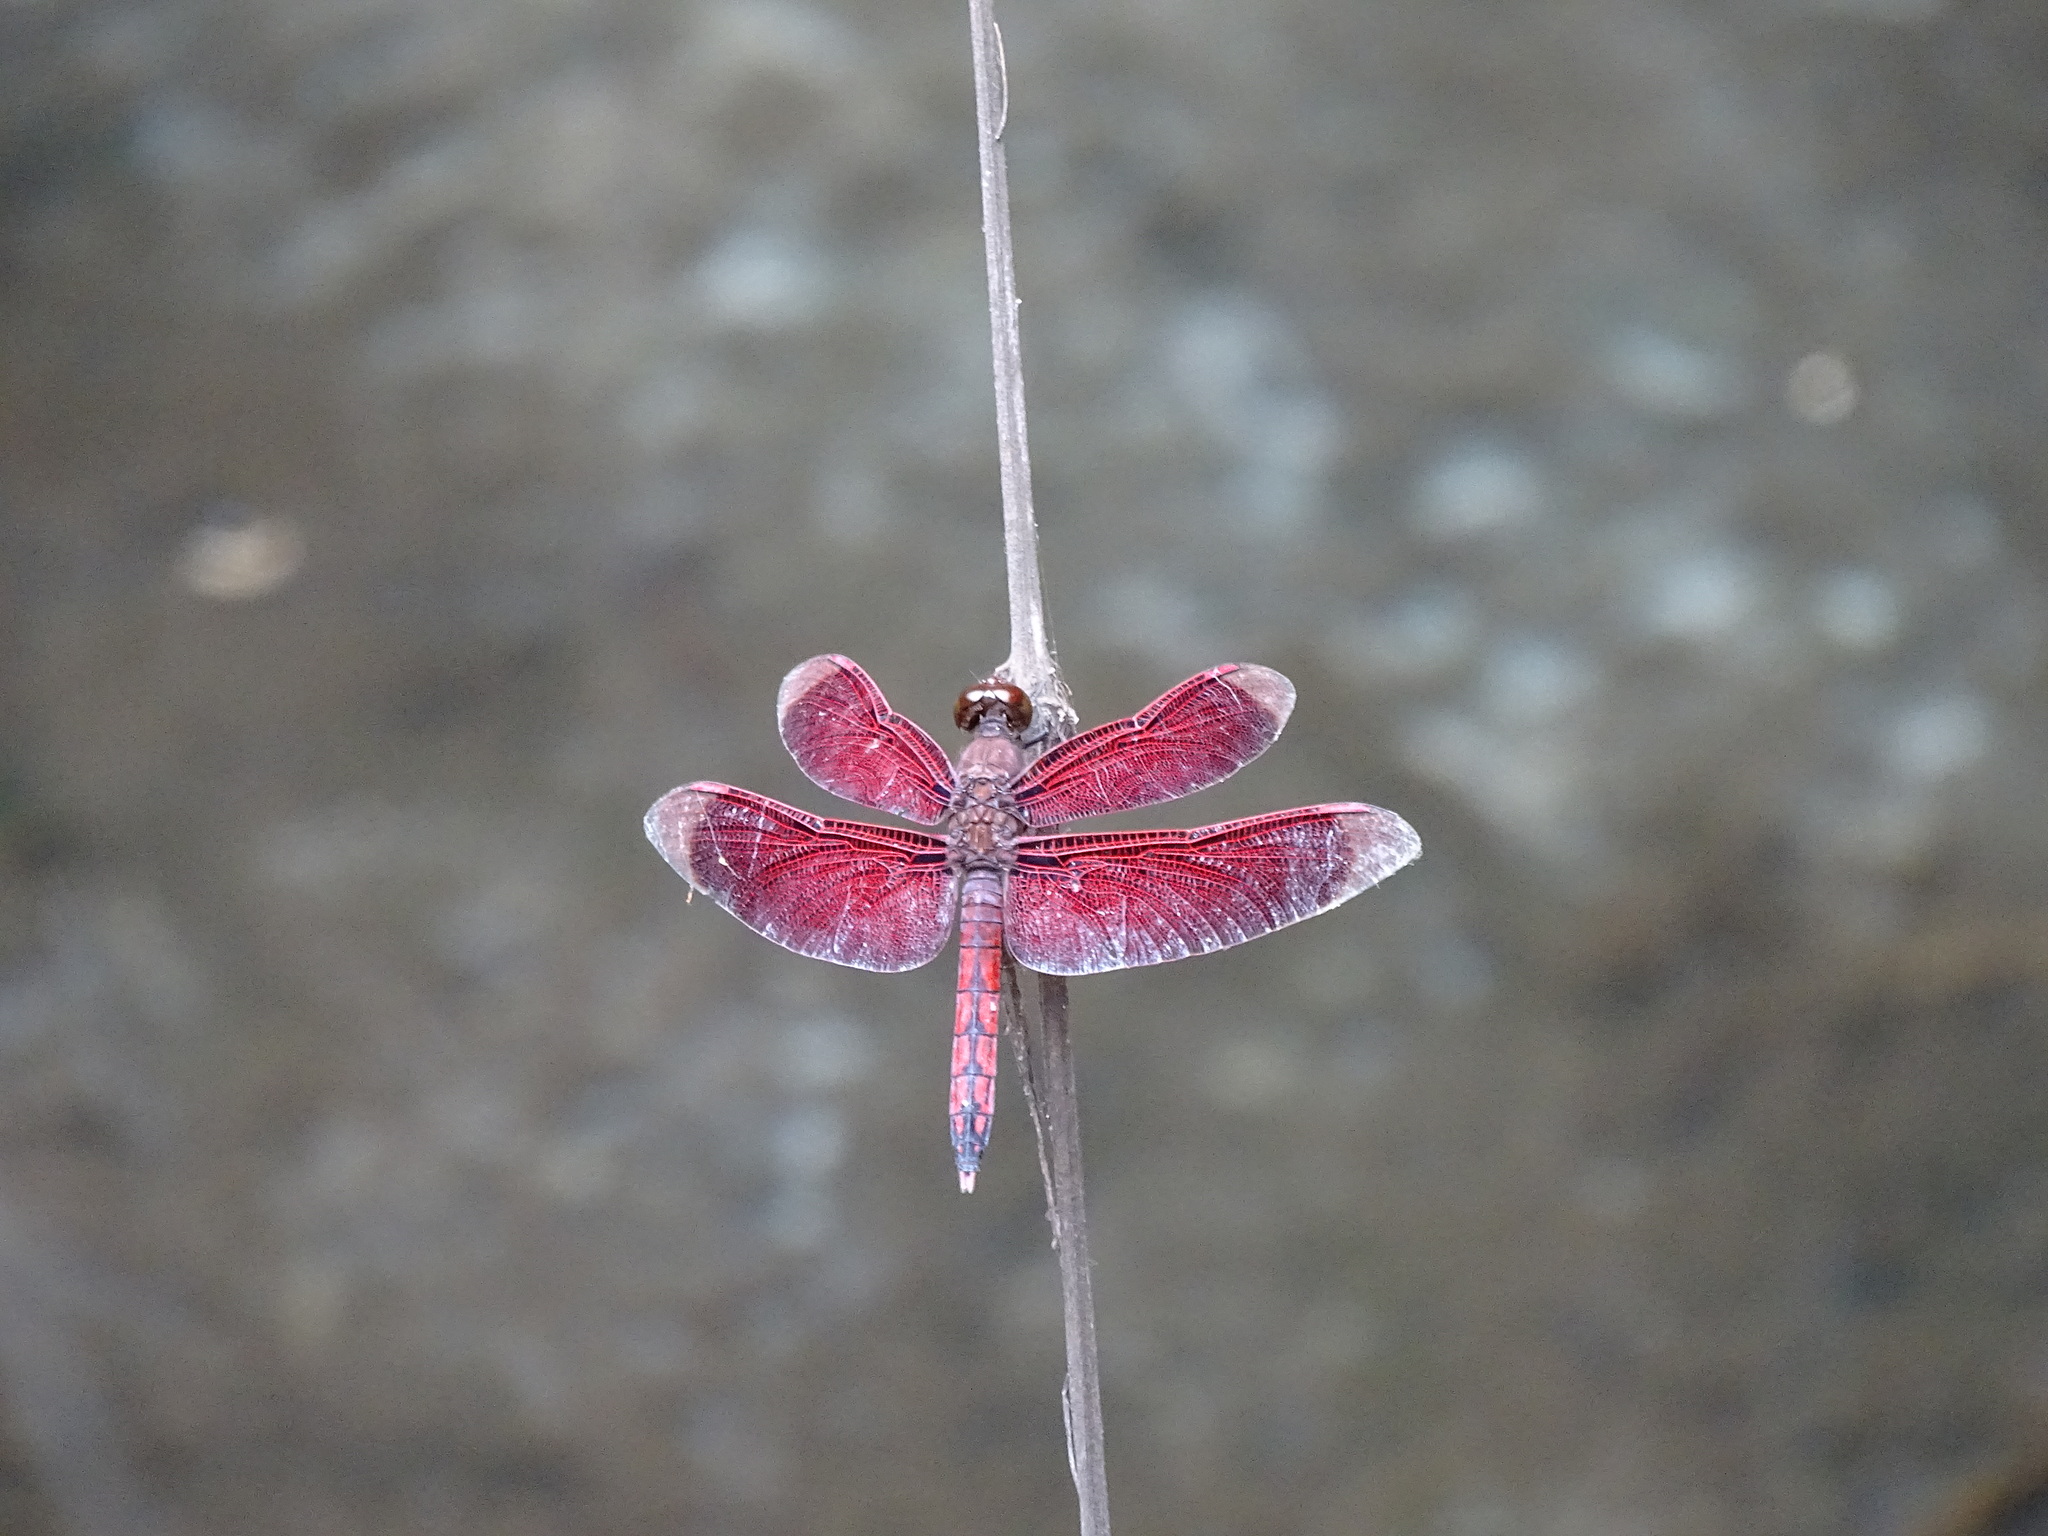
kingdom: Animalia
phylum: Arthropoda
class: Insecta
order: Odonata
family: Libellulidae
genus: Neurothemis
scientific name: Neurothemis taiwanensis
